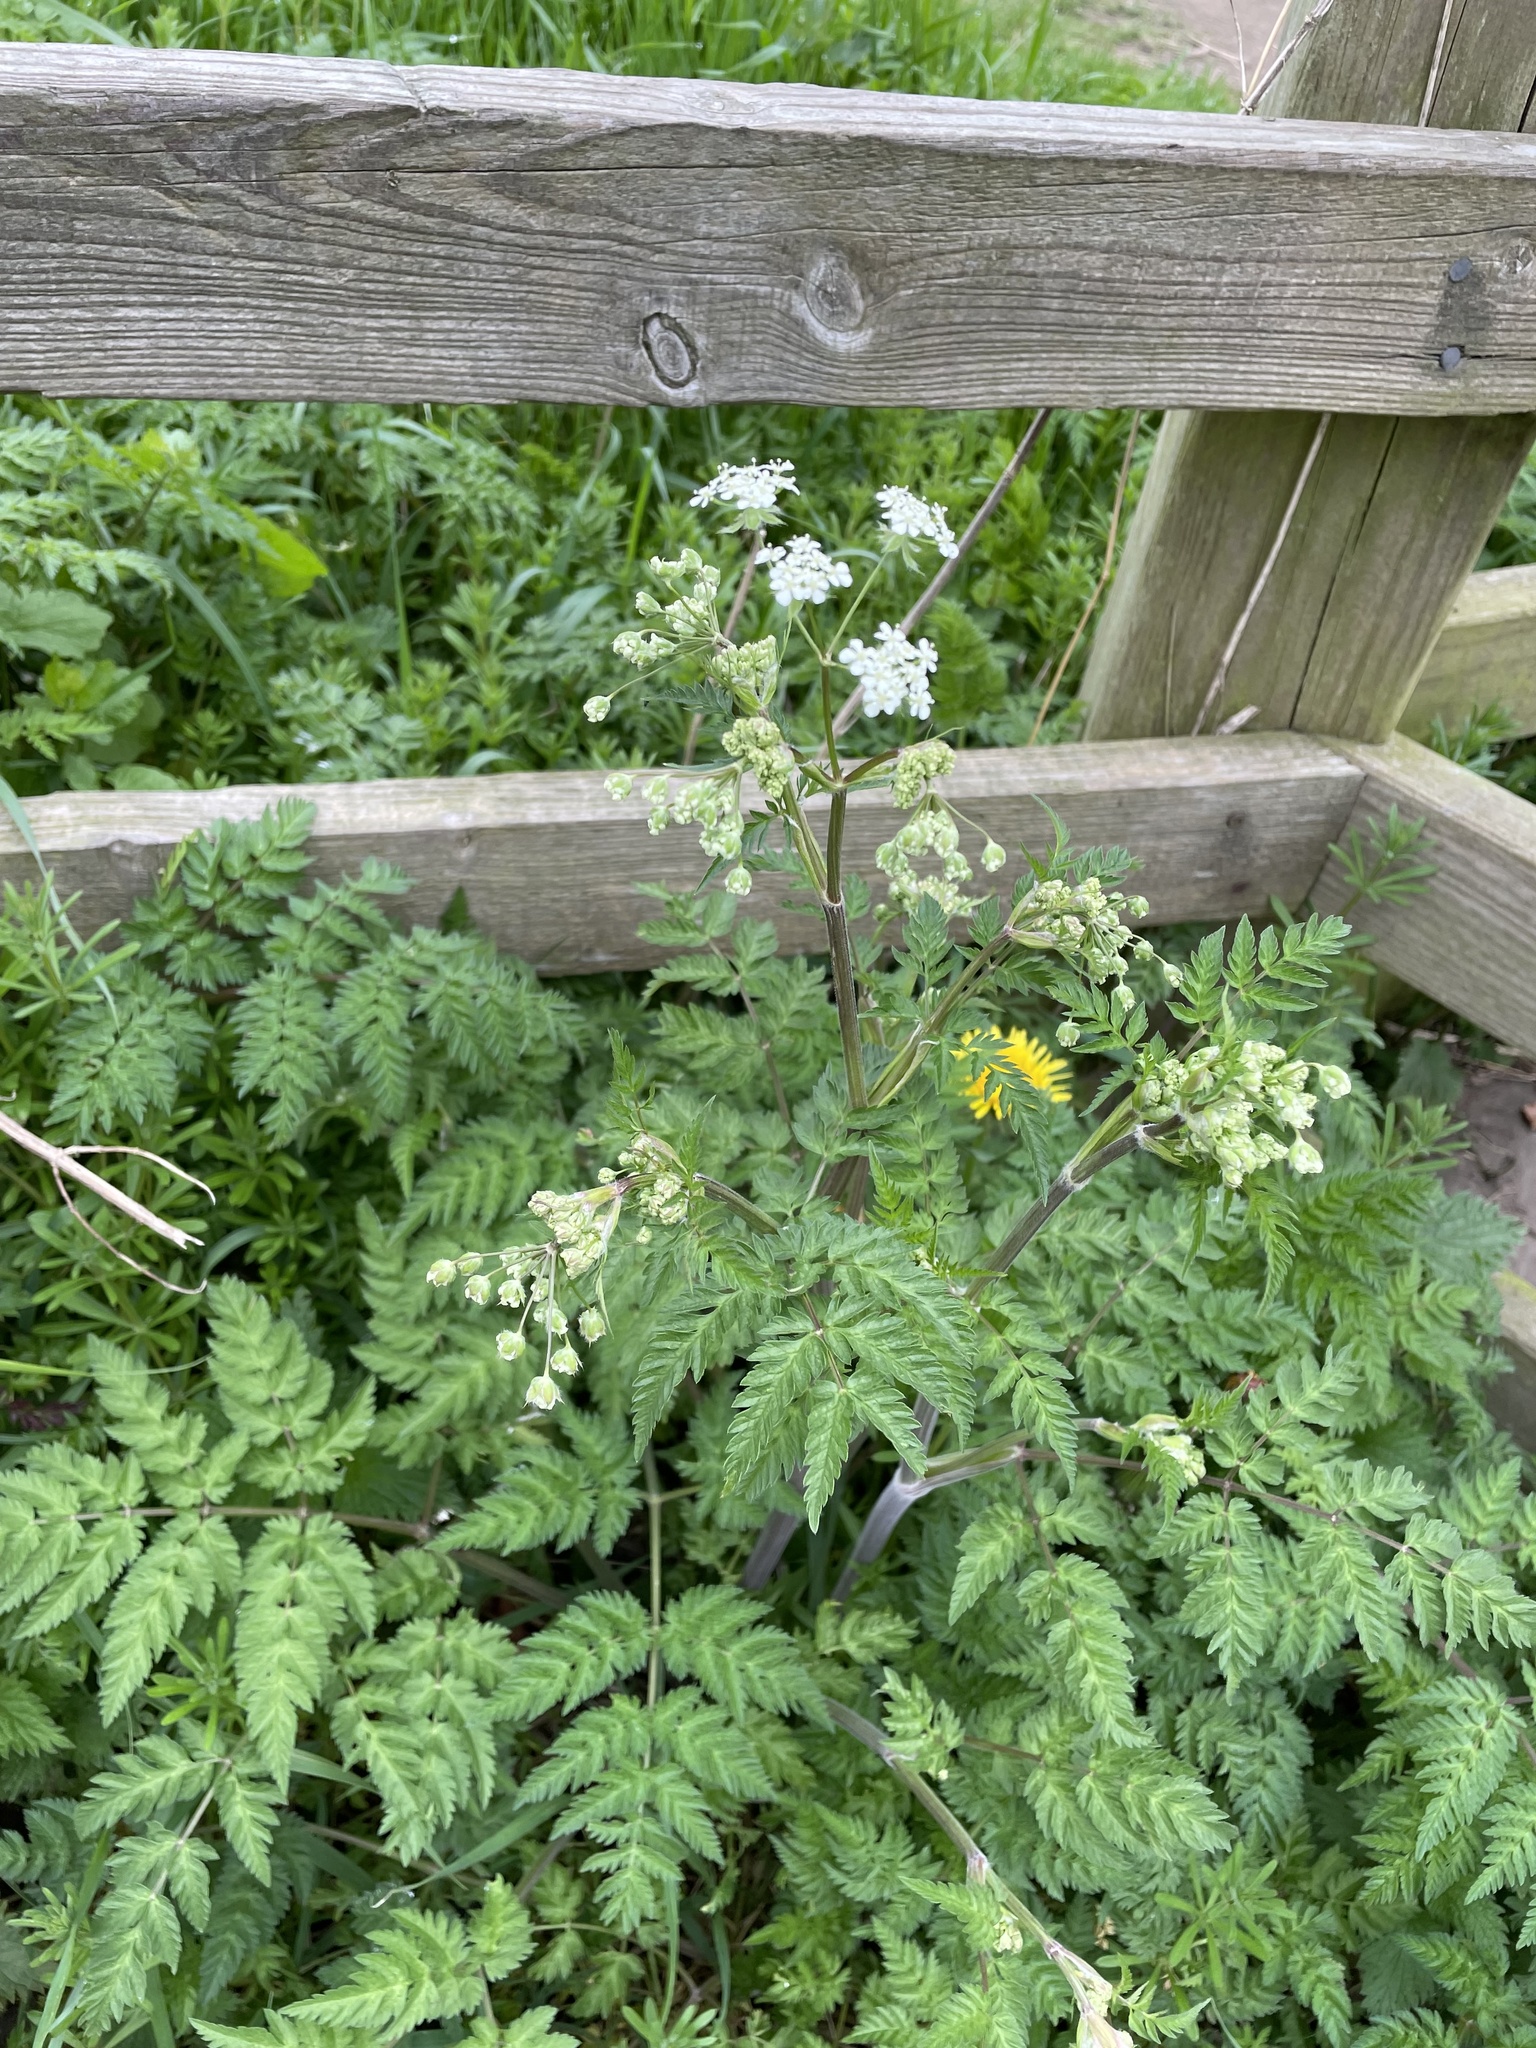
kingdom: Plantae
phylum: Tracheophyta
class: Magnoliopsida
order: Apiales
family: Apiaceae
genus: Anthriscus
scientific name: Anthriscus sylvestris
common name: Cow parsley
